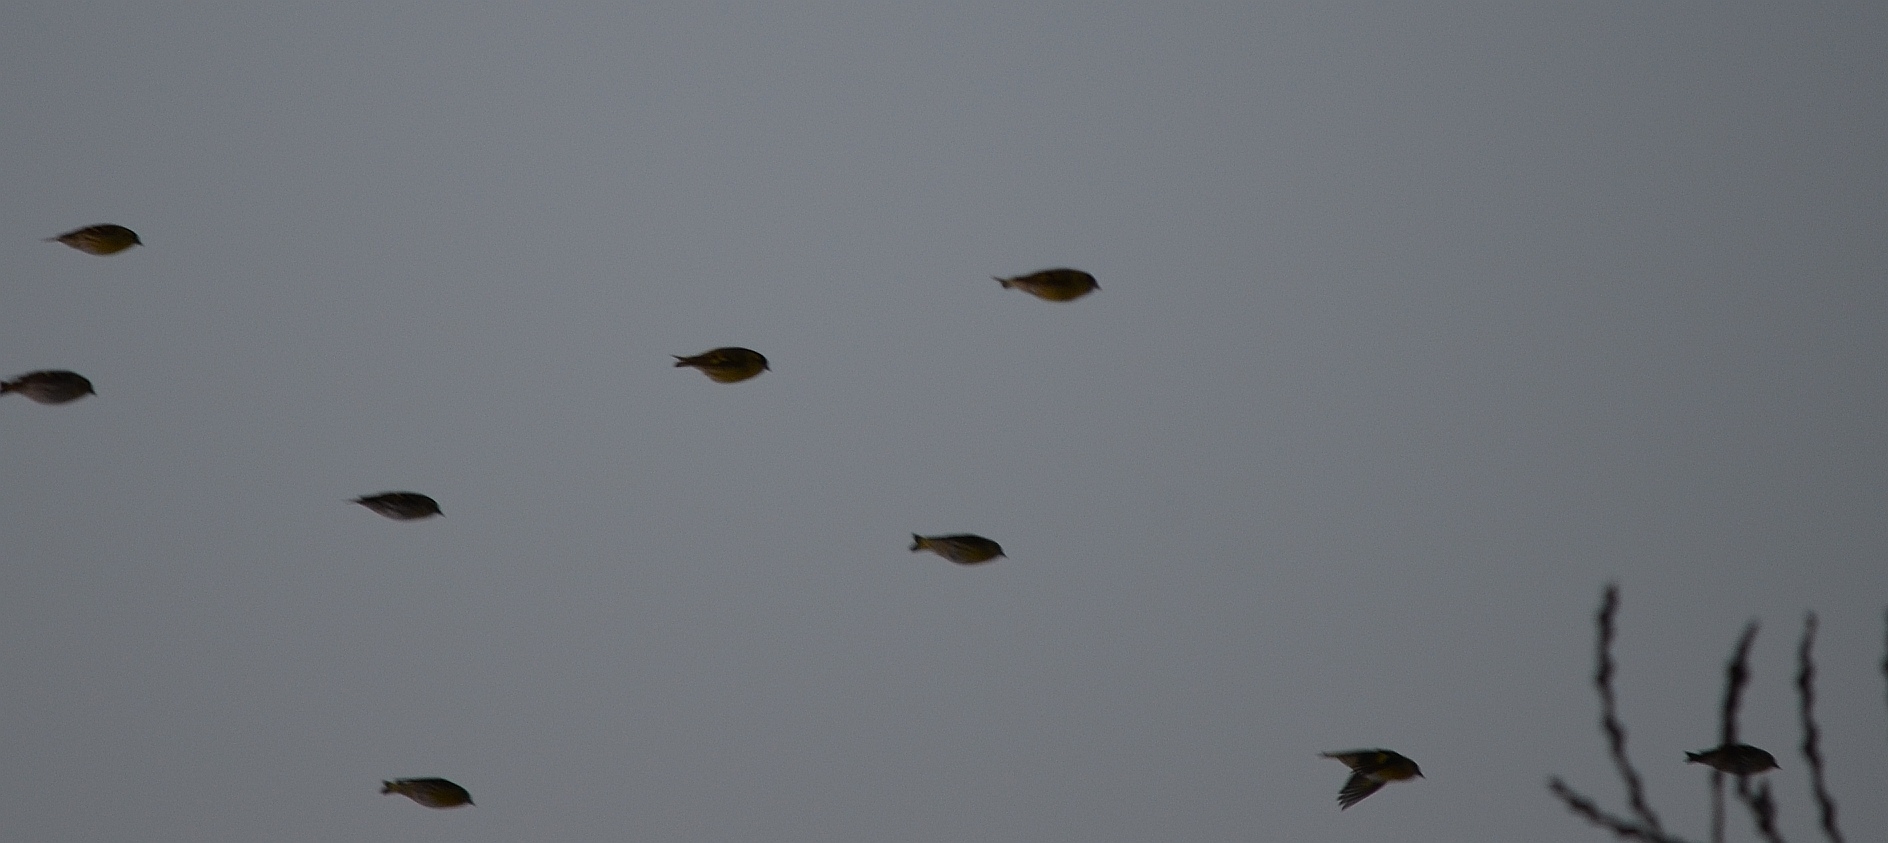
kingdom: Animalia
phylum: Chordata
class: Aves
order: Passeriformes
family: Fringillidae
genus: Spinus
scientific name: Spinus spinus
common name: Eurasian siskin
